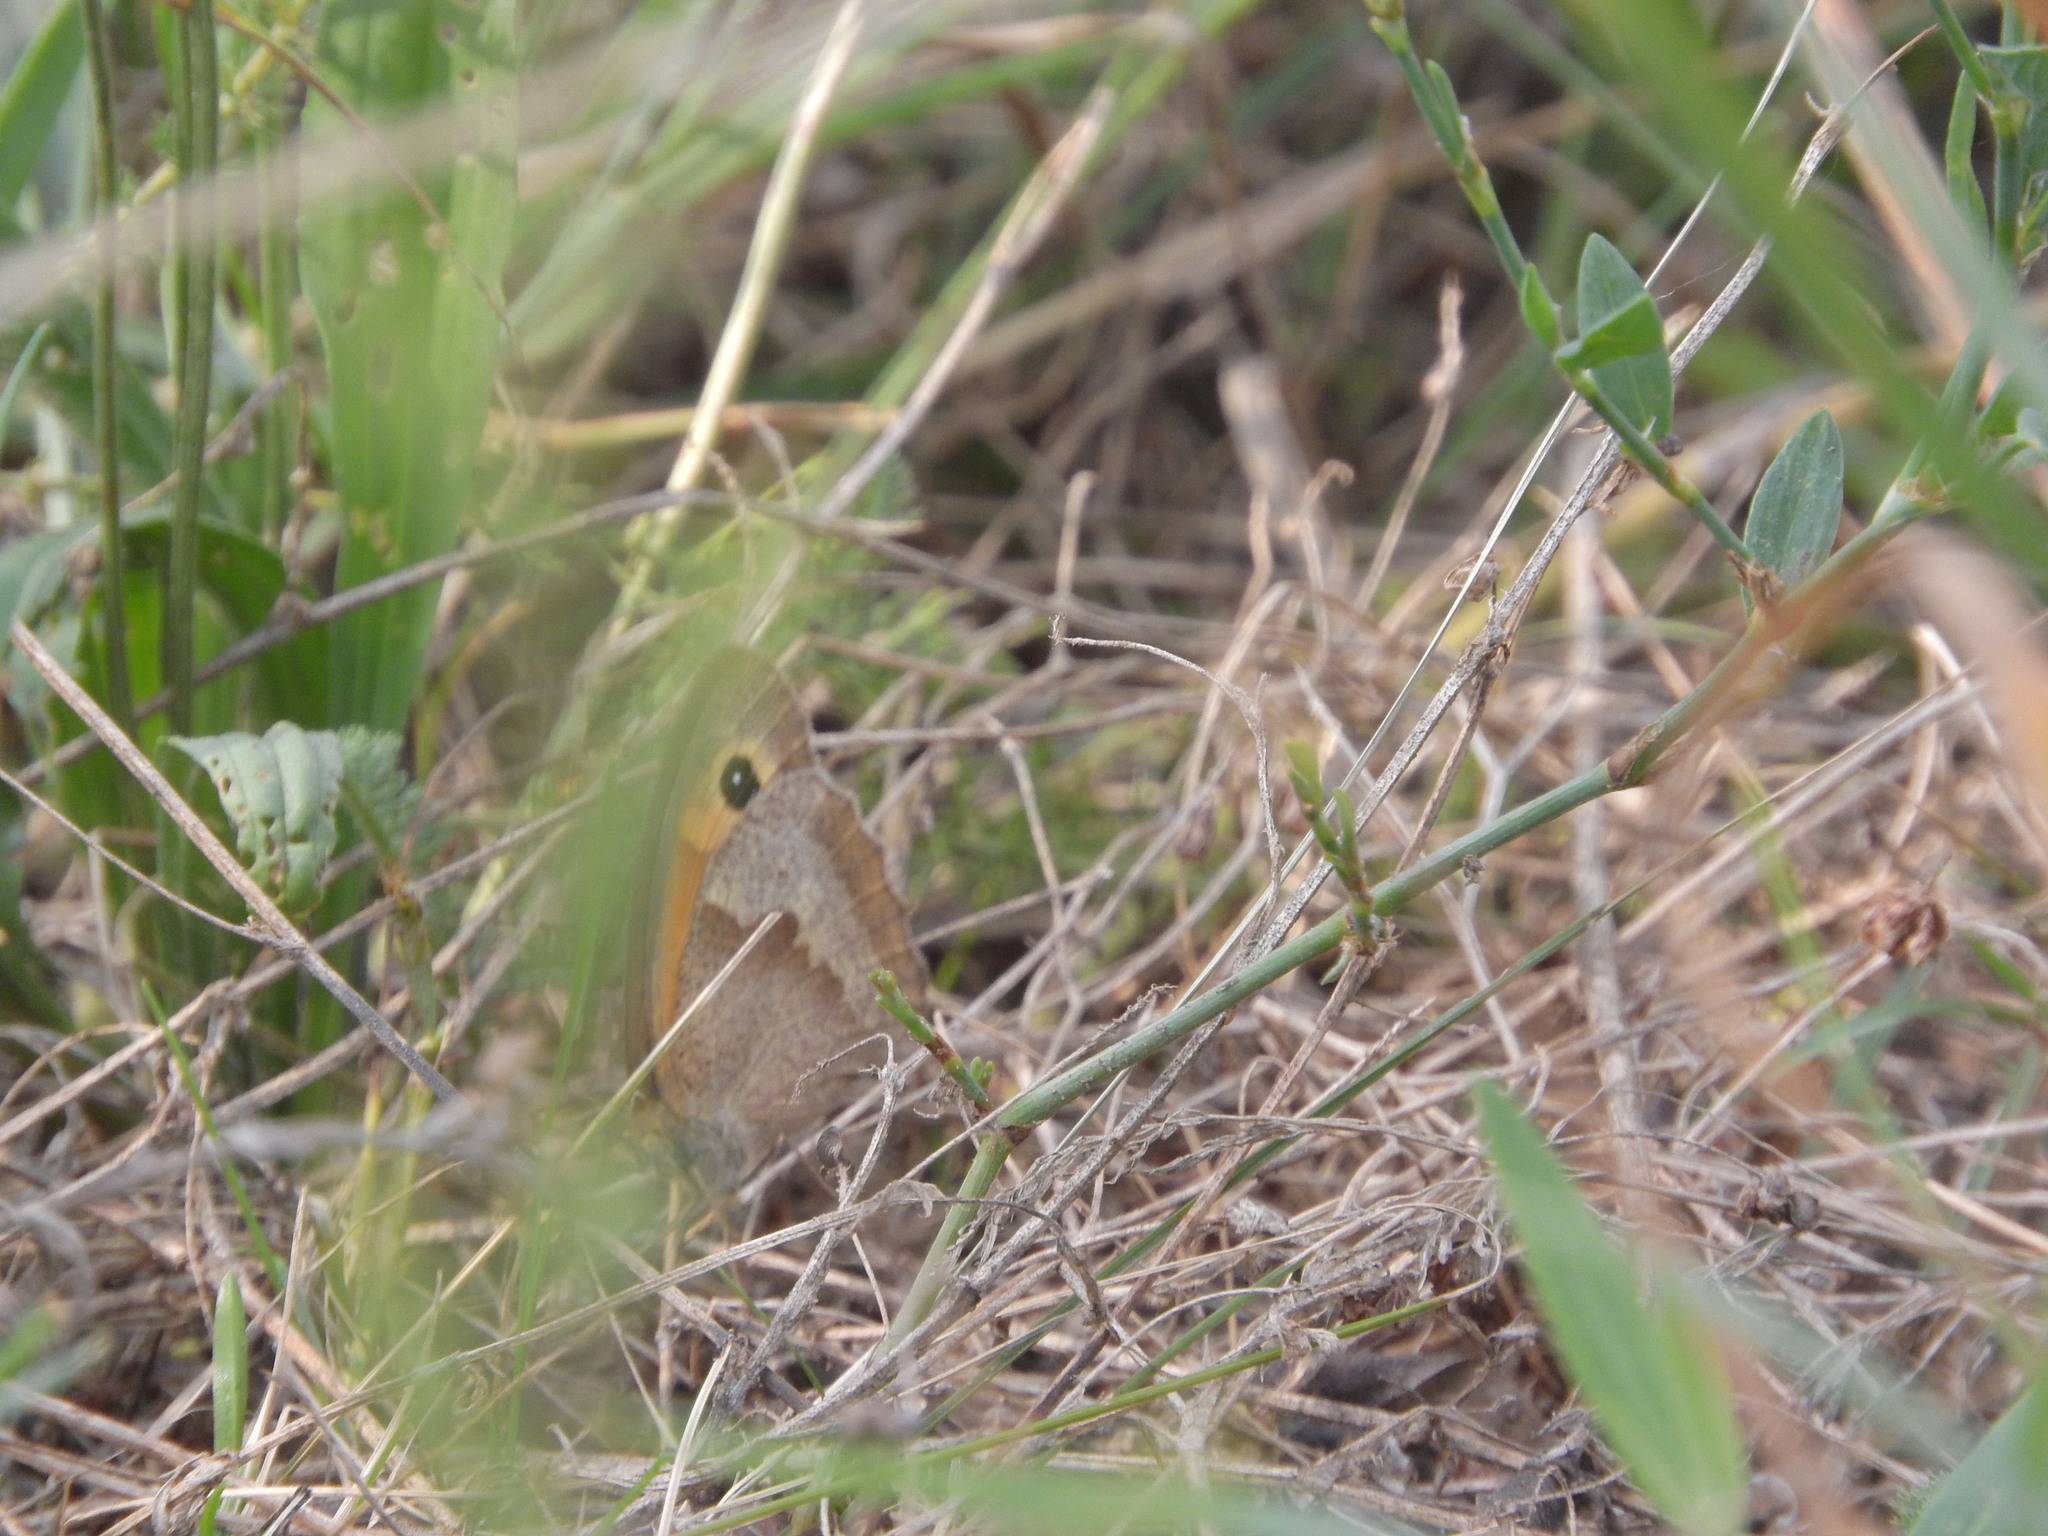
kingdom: Animalia
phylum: Arthropoda
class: Insecta
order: Lepidoptera
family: Nymphalidae
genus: Maniola
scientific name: Maniola jurtina
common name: Meadow brown
